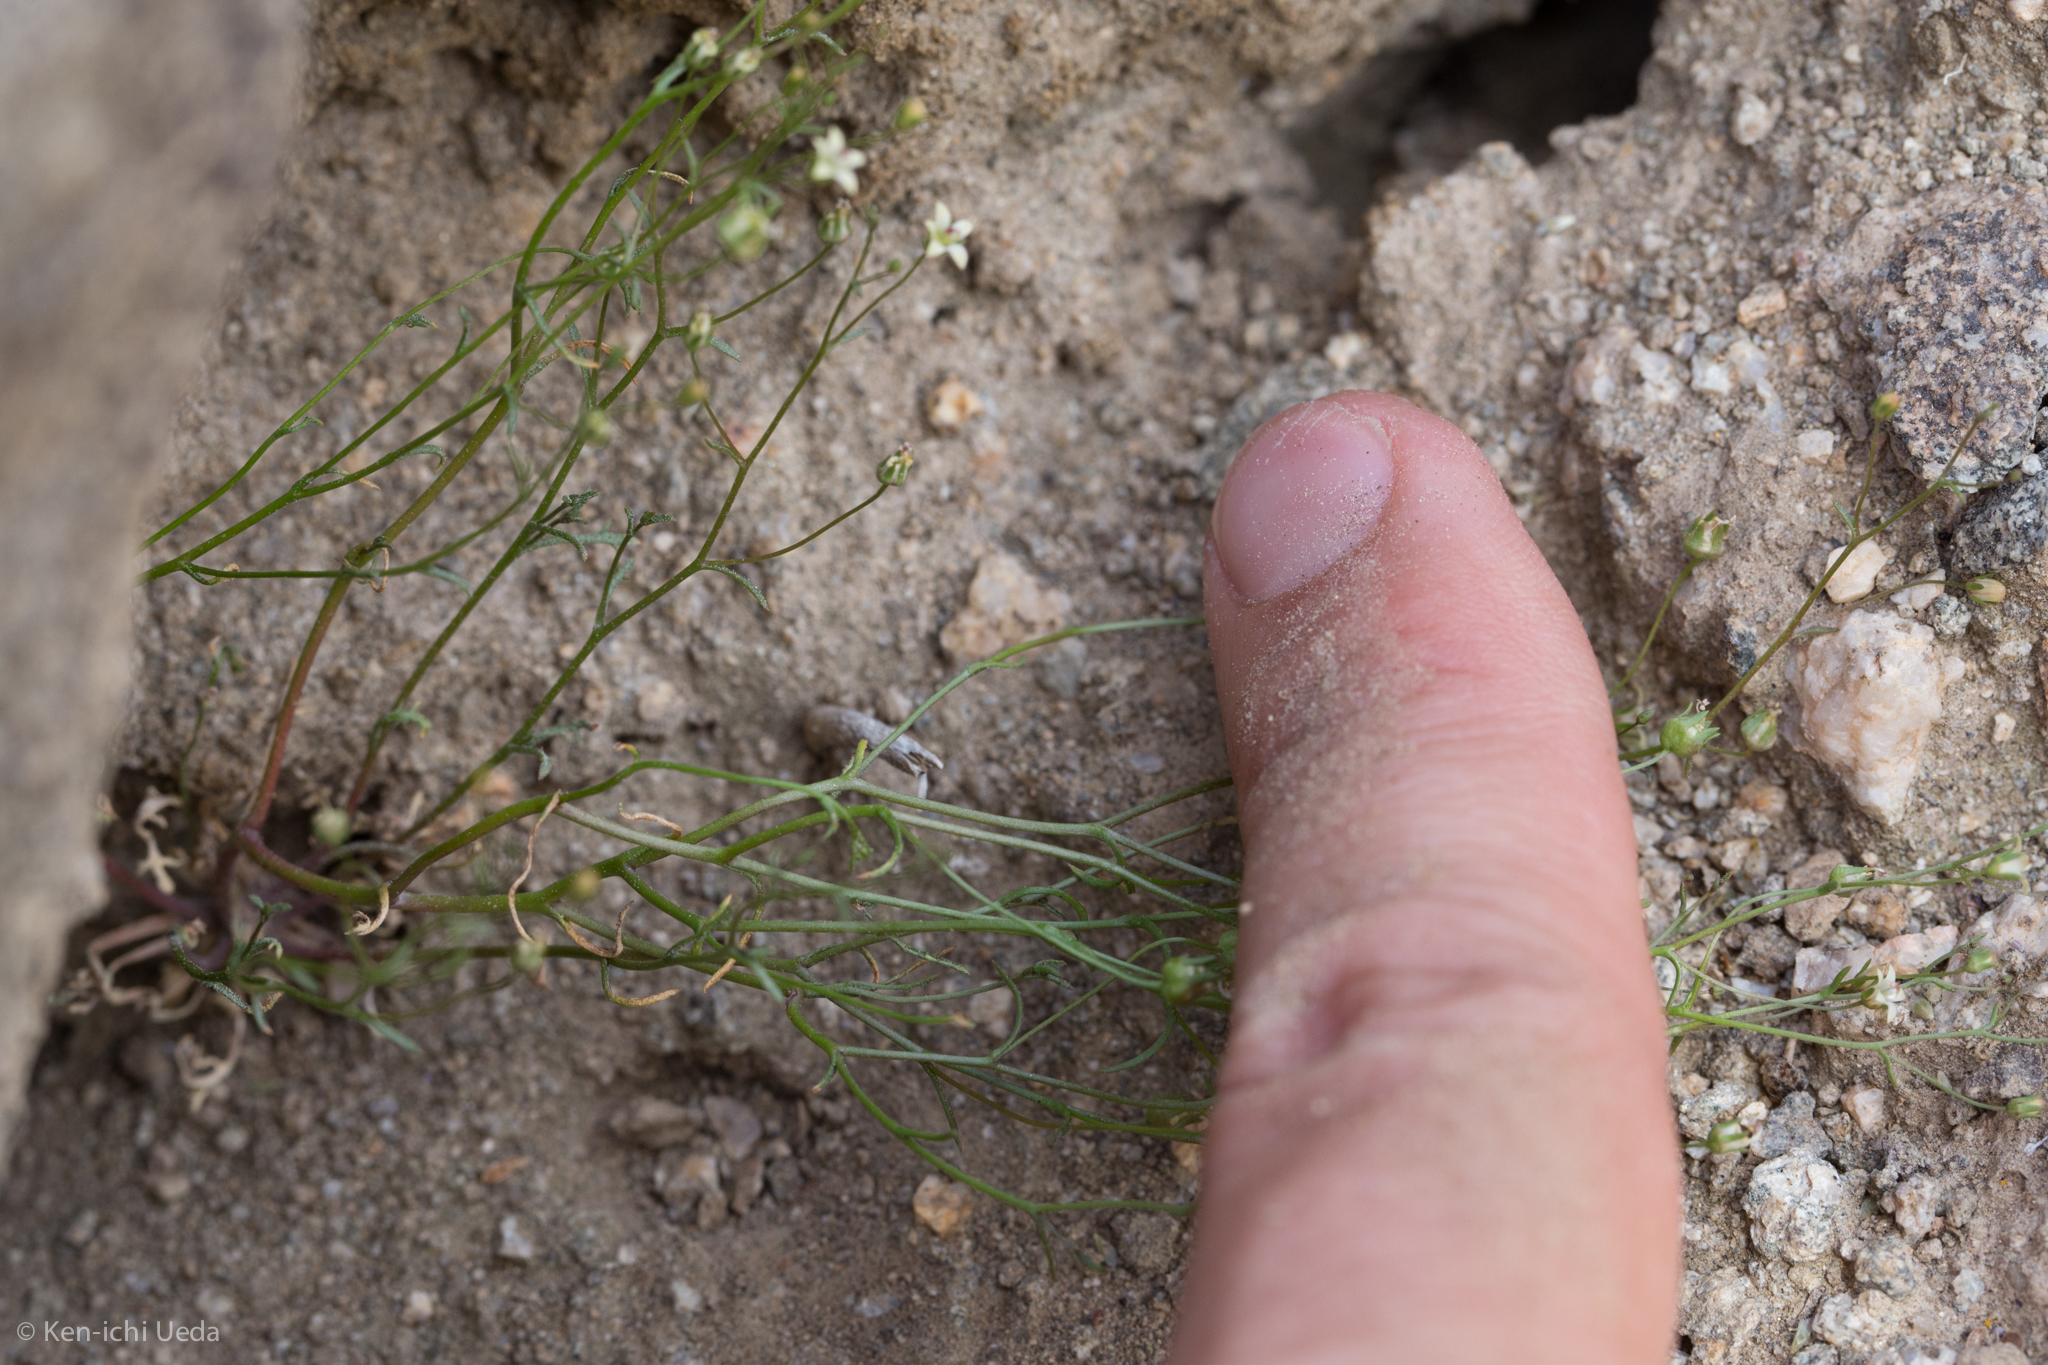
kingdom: Plantae
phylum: Tracheophyta
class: Magnoliopsida
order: Asterales
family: Campanulaceae
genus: Nemacladus
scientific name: Nemacladus glanduliferus
